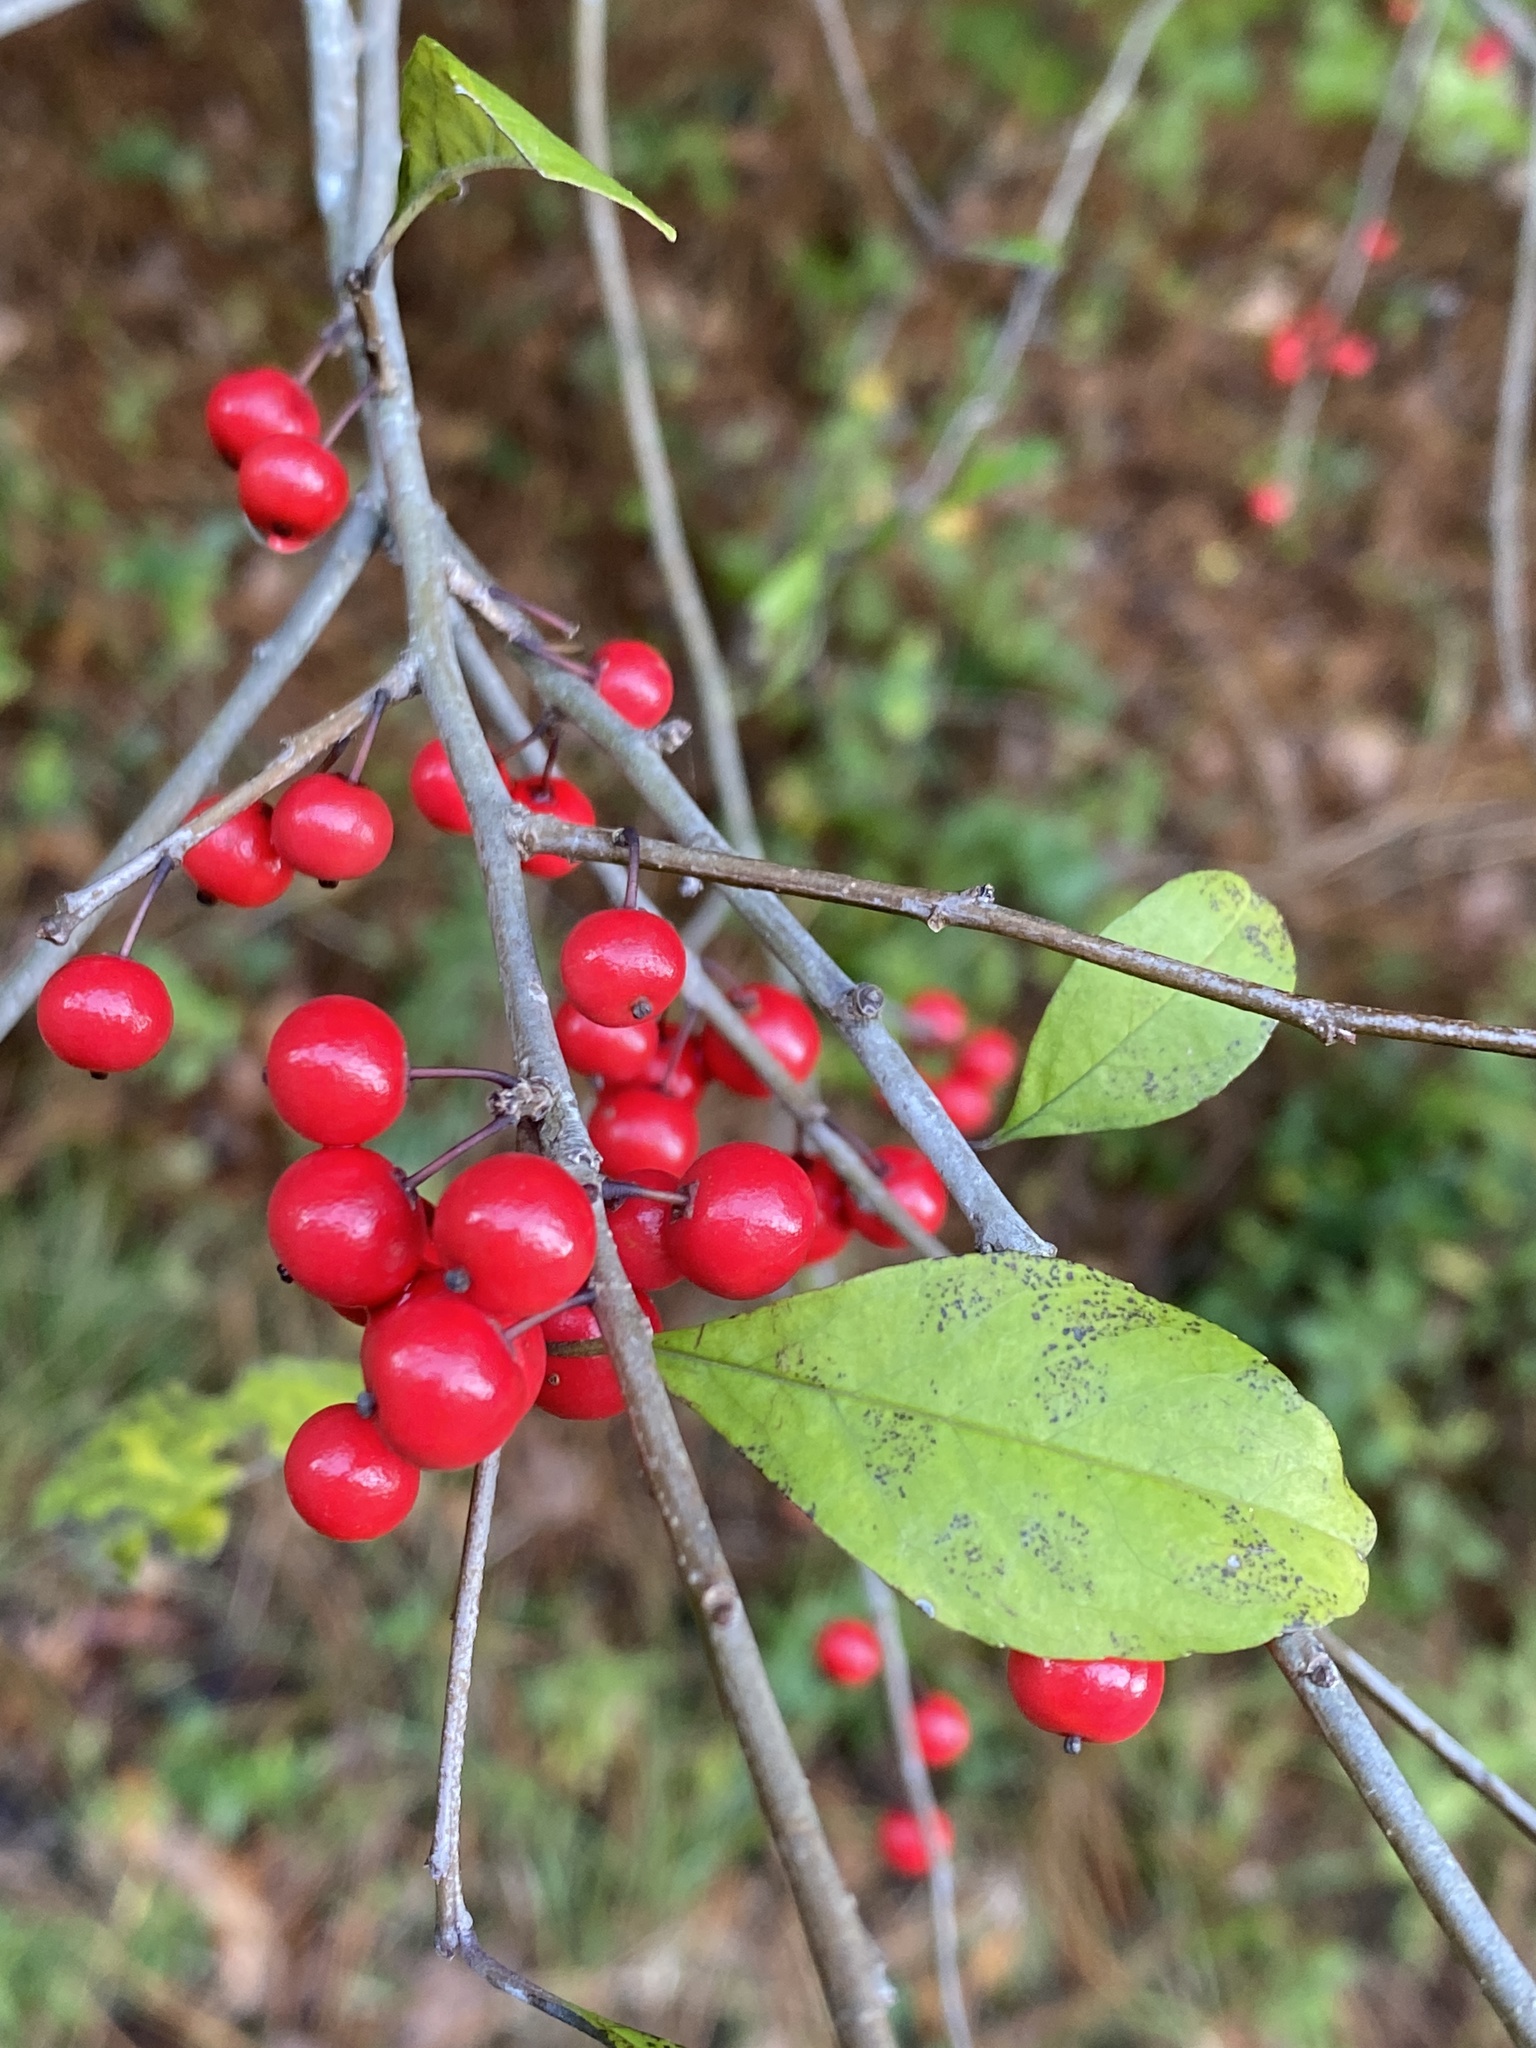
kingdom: Plantae
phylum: Tracheophyta
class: Magnoliopsida
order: Aquifoliales
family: Aquifoliaceae
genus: Ilex
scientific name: Ilex decidua
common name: Possum-haw
